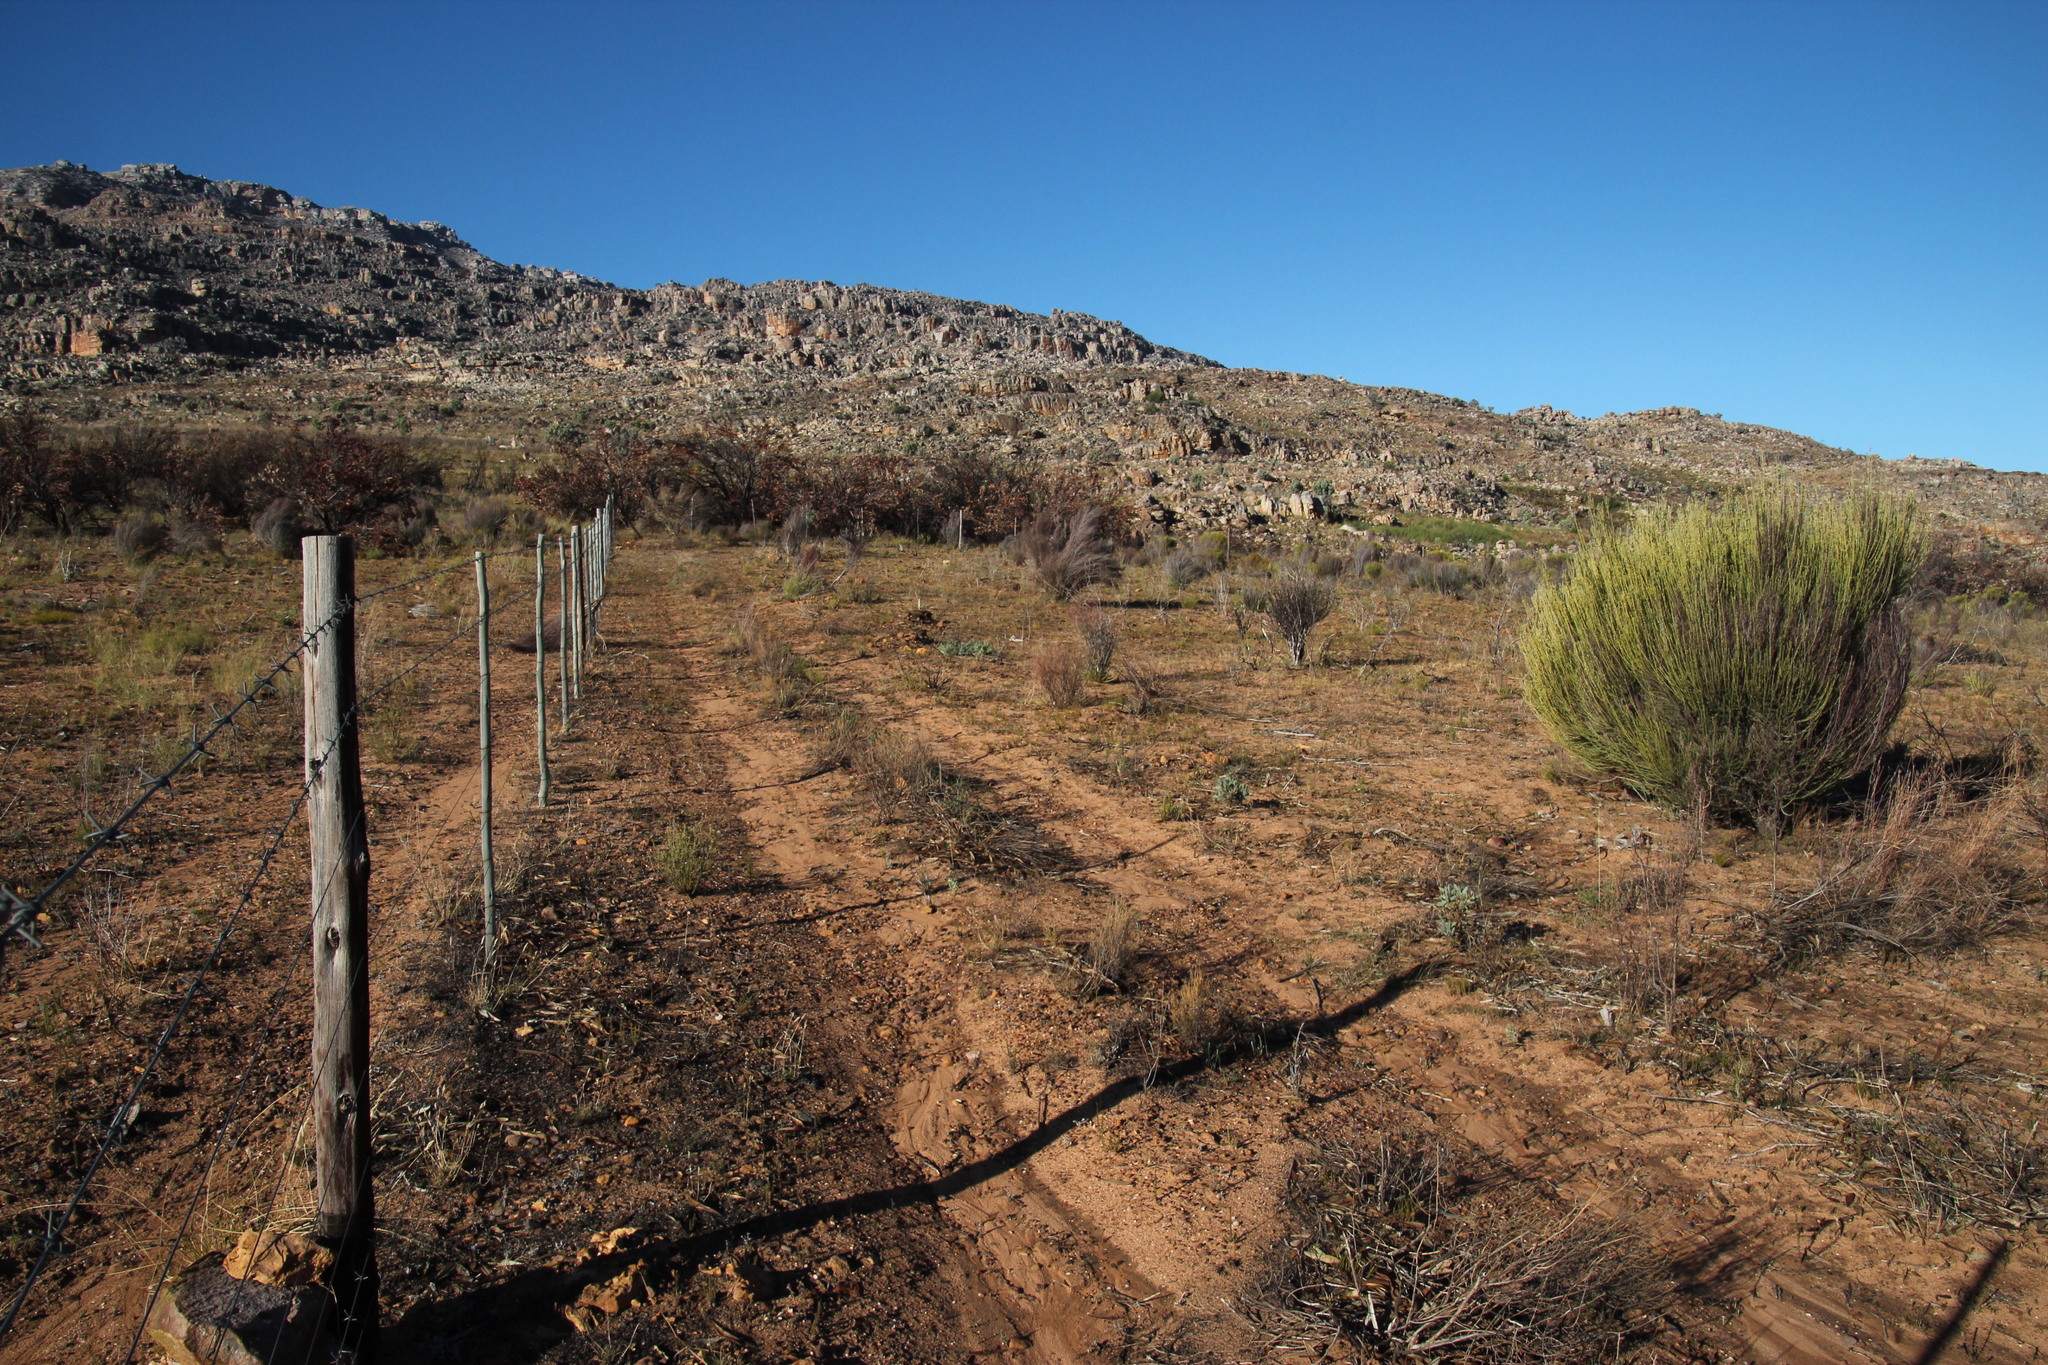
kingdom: Plantae
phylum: Tracheophyta
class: Magnoliopsida
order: Proteales
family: Proteaceae
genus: Leucadendron
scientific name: Leucadendron glaberrimum
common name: Common oily conebush
